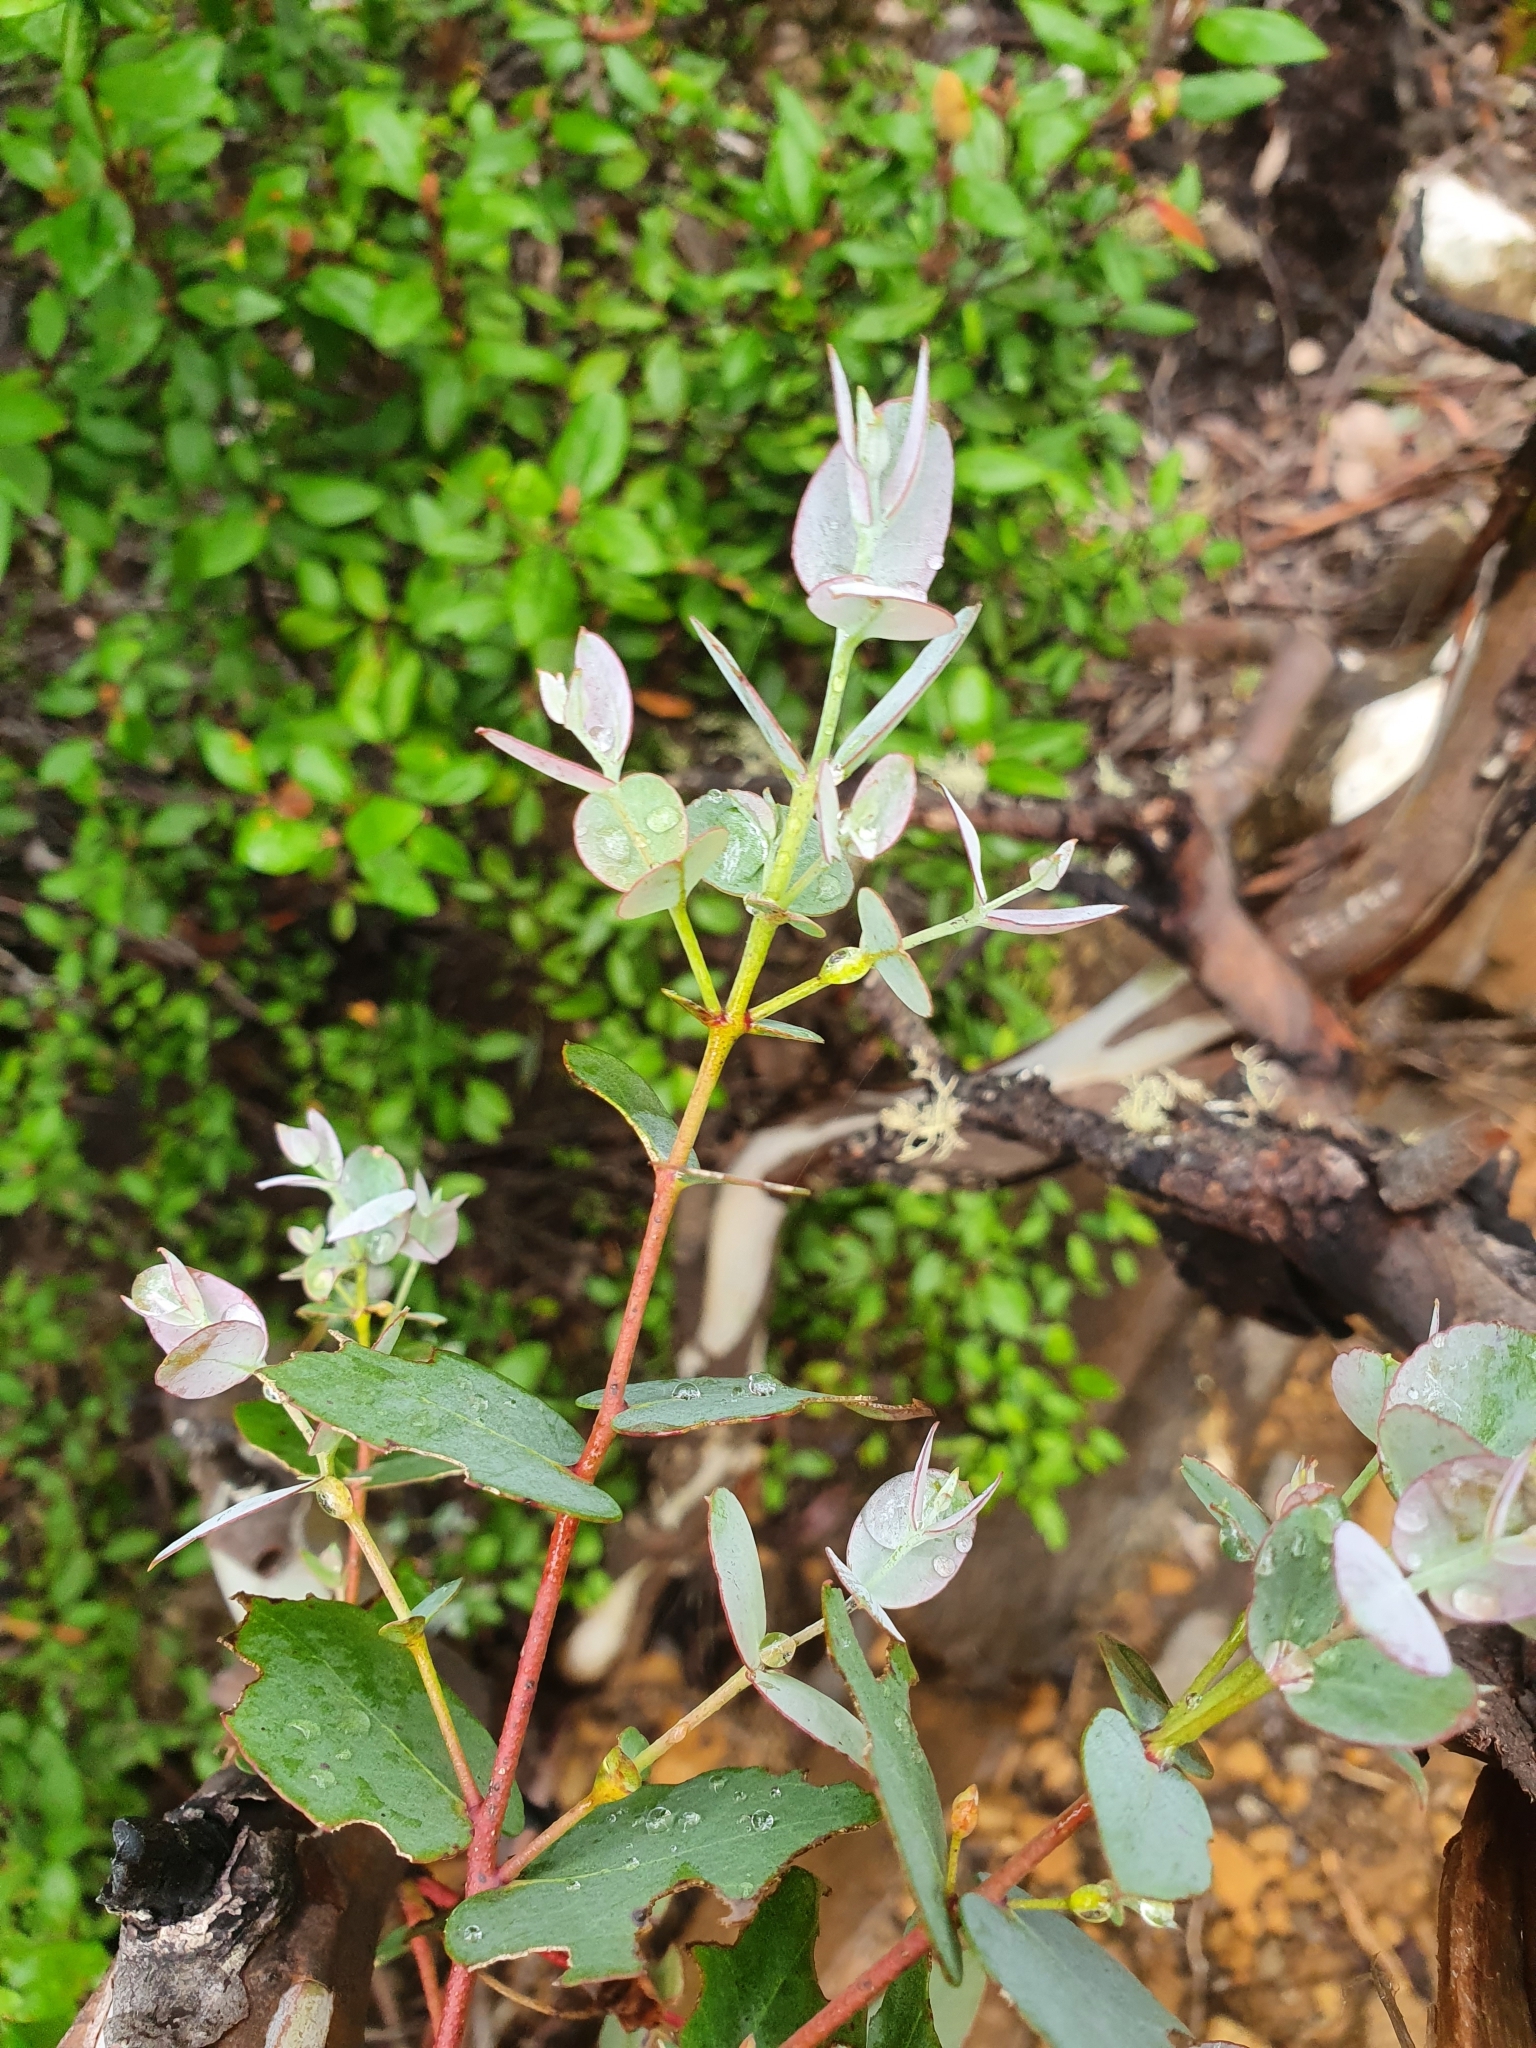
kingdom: Plantae
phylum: Tracheophyta
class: Magnoliopsida
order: Myrtales
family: Myrtaceae
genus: Eucalyptus
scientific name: Eucalyptus coccifera
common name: Tasmanian snow-gum
